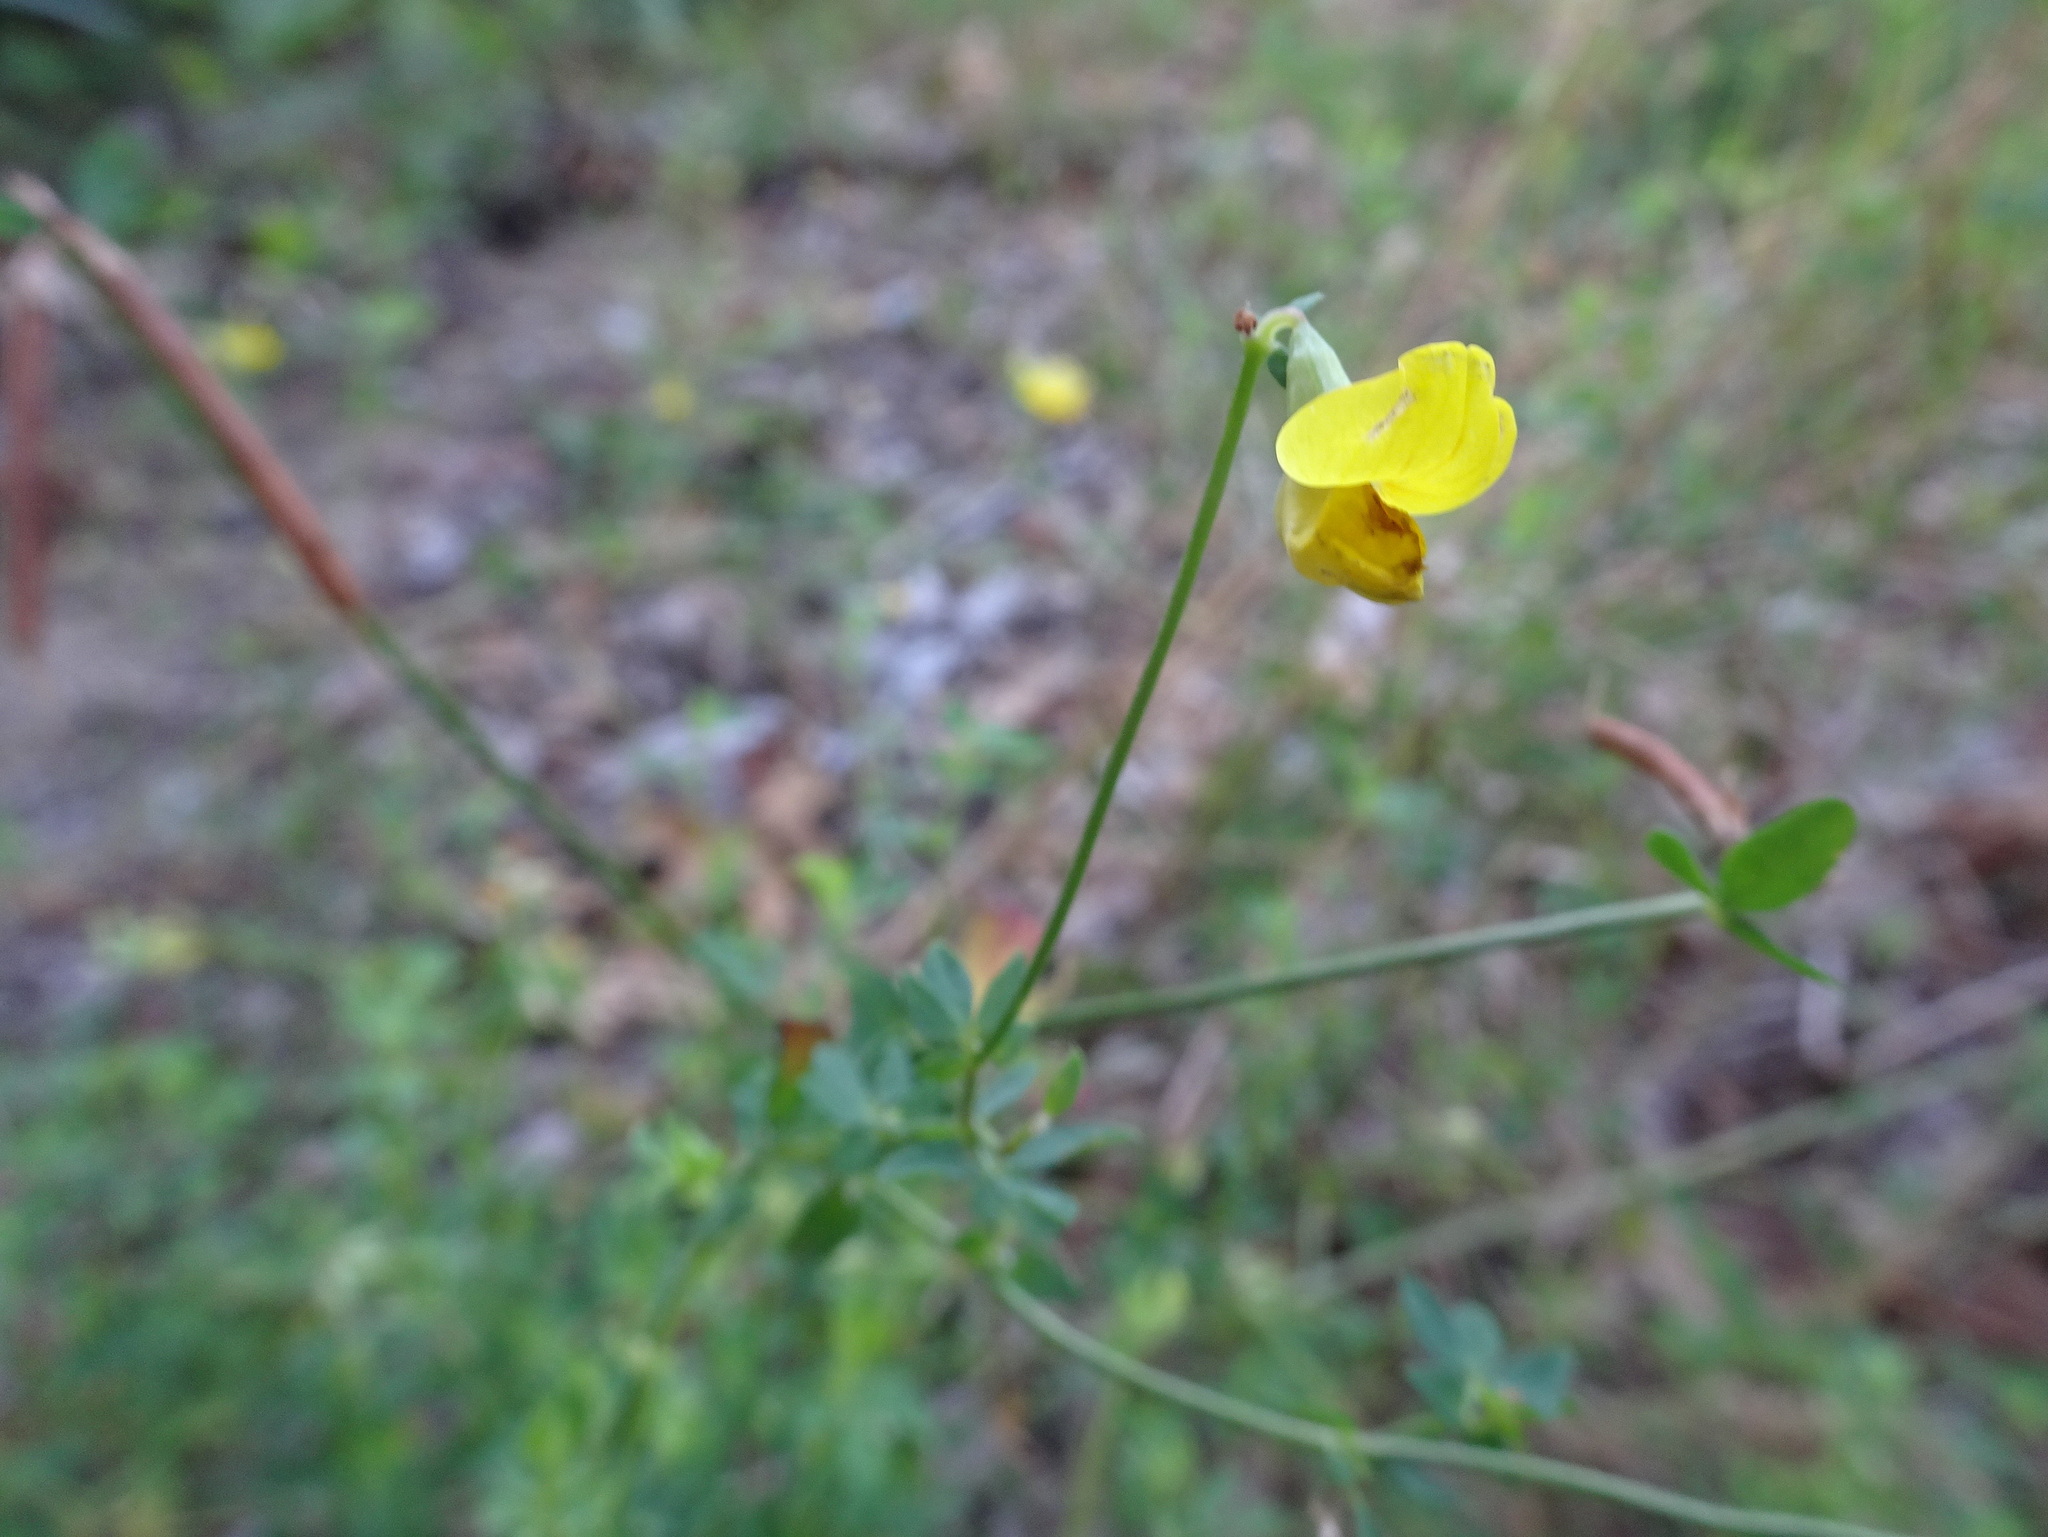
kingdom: Plantae
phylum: Tracheophyta
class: Magnoliopsida
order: Fabales
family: Fabaceae
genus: Lotus
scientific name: Lotus corniculatus
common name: Common bird's-foot-trefoil
